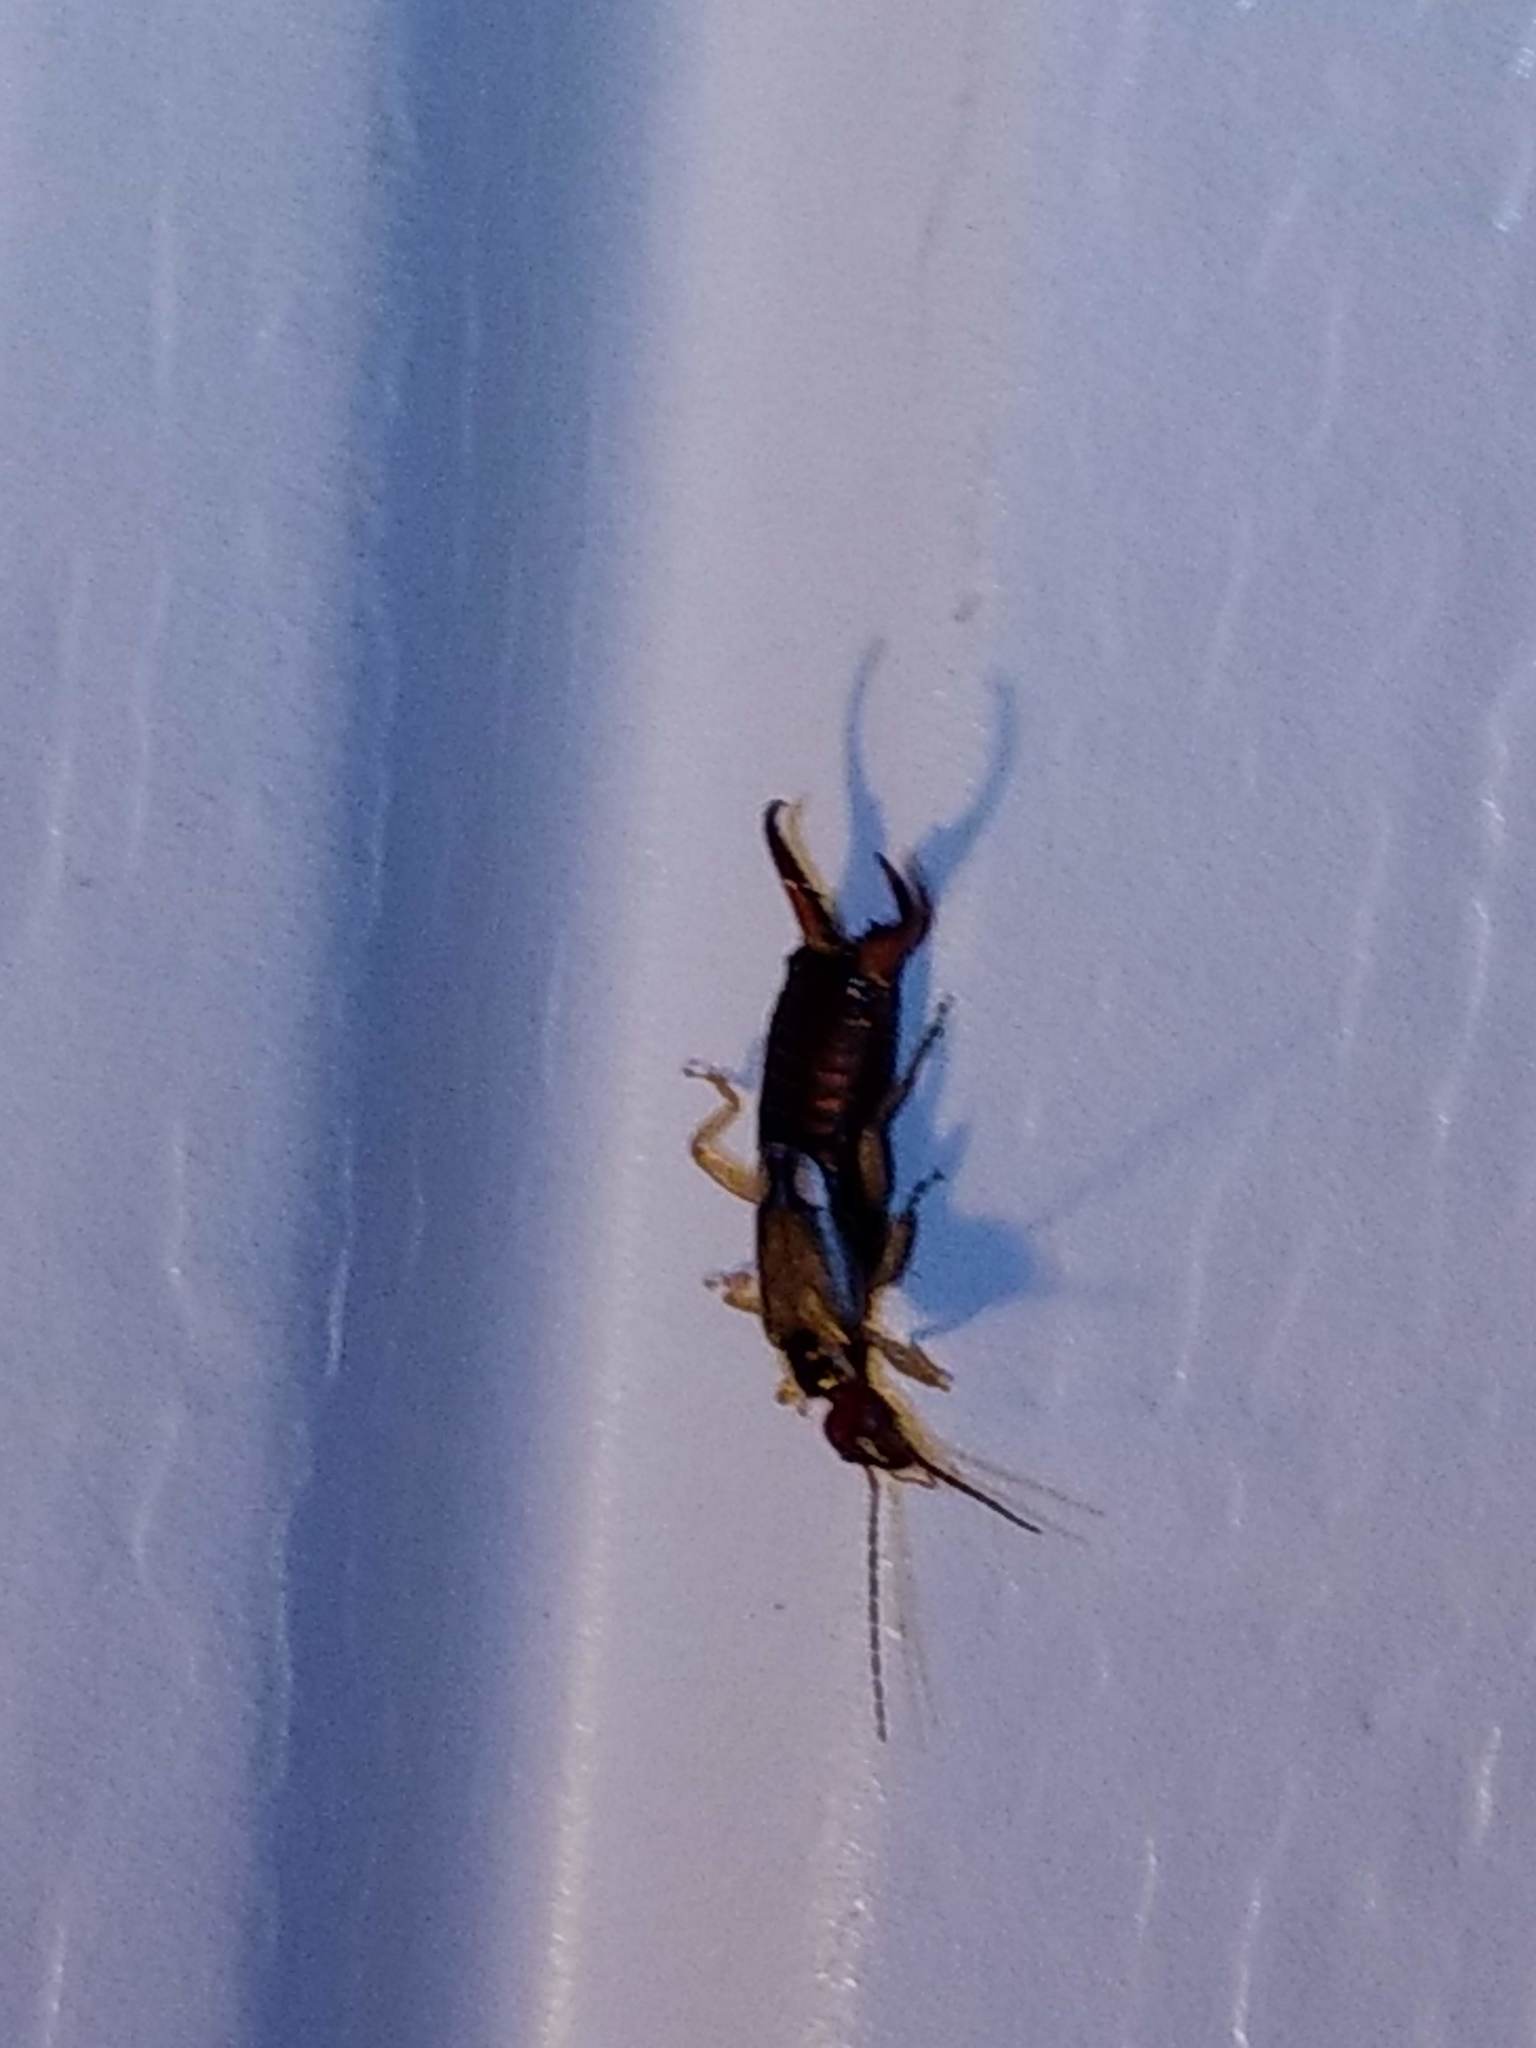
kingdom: Animalia
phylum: Arthropoda
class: Insecta
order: Dermaptera
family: Forficulidae
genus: Forficula
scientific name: Forficula
